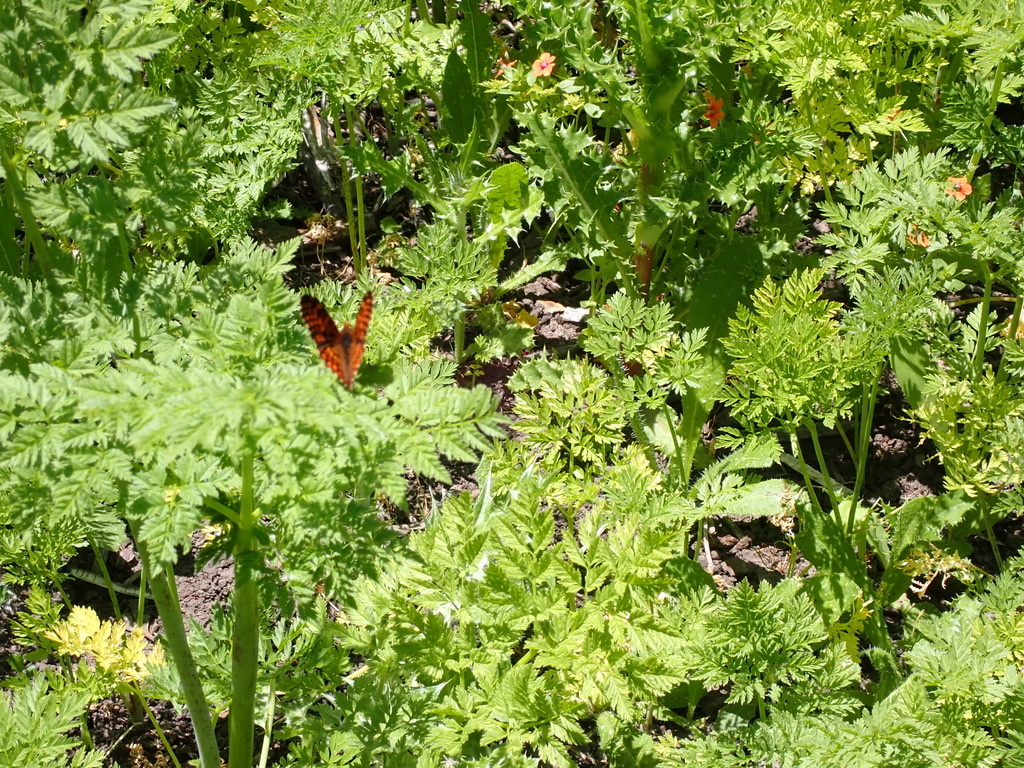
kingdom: Animalia
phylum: Arthropoda
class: Insecta
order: Lepidoptera
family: Nymphalidae
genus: Chlosyne
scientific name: Chlosyne palla
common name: Northern checkerspot
